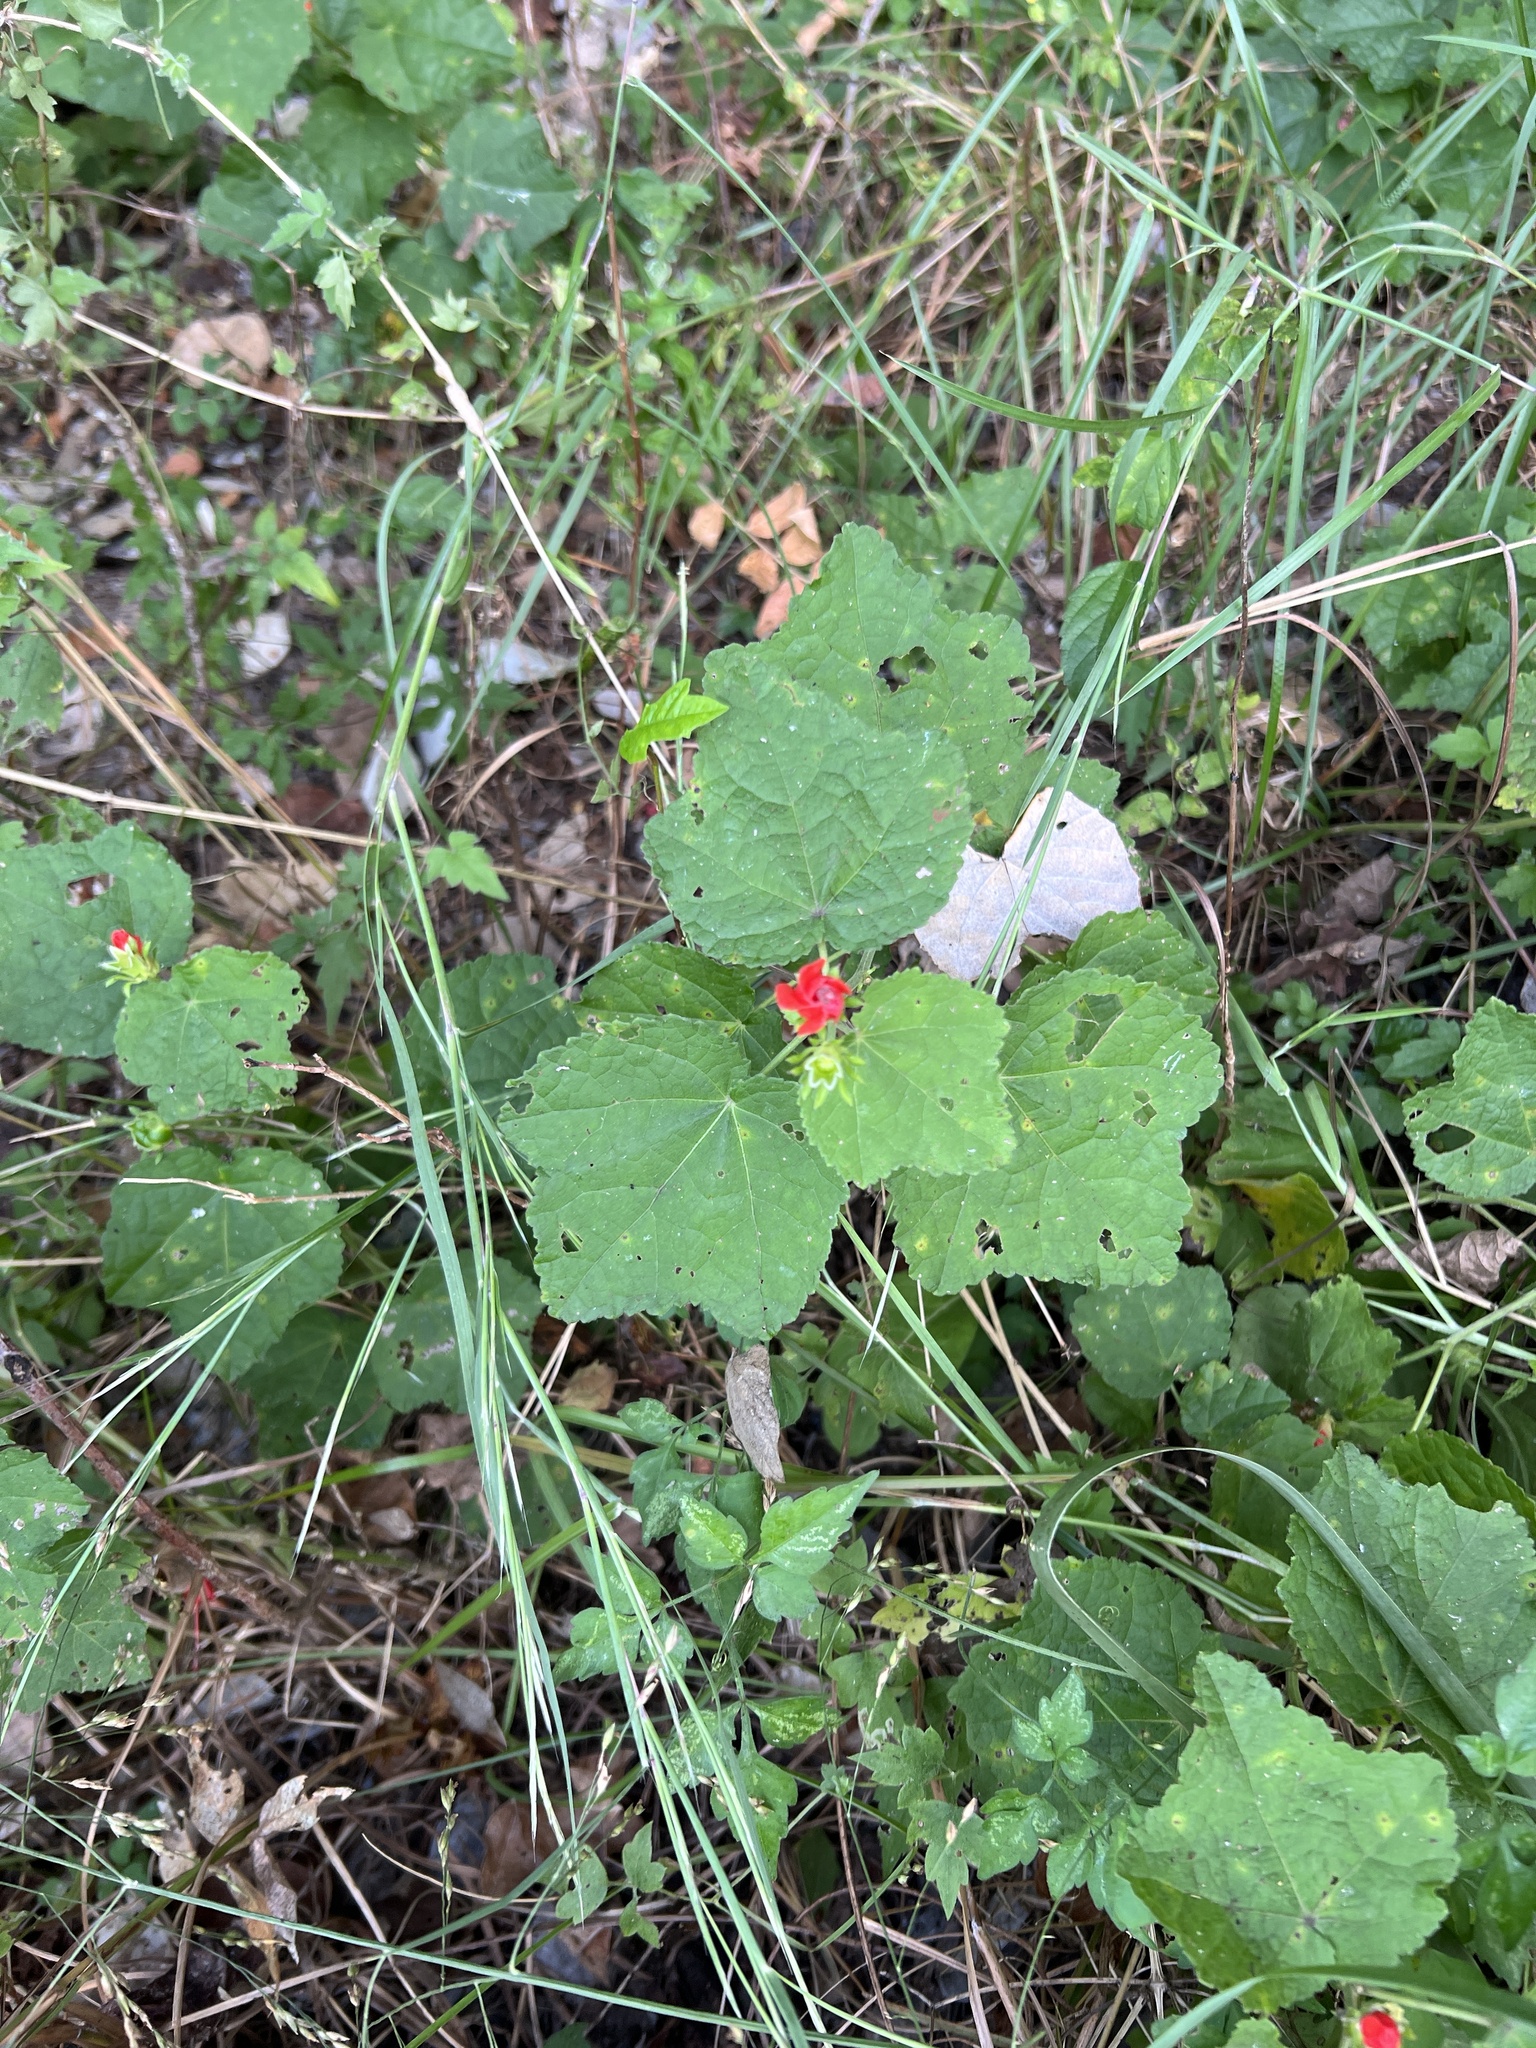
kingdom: Plantae
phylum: Tracheophyta
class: Magnoliopsida
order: Malvales
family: Malvaceae
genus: Malvaviscus
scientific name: Malvaviscus arboreus
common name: Wax mallow
